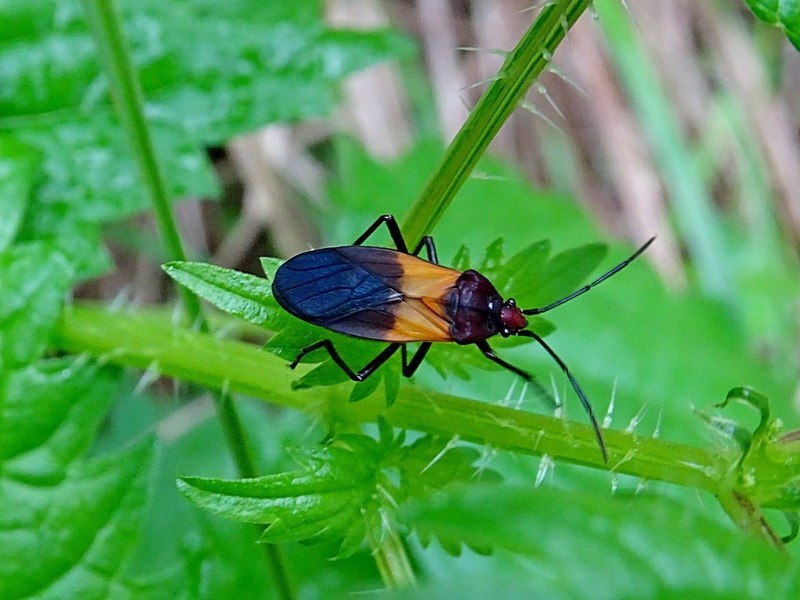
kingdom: Animalia
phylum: Arthropoda
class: Insecta
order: Hemiptera
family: Lygaeidae
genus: Oncopeltus
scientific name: Oncopeltus sordidus
